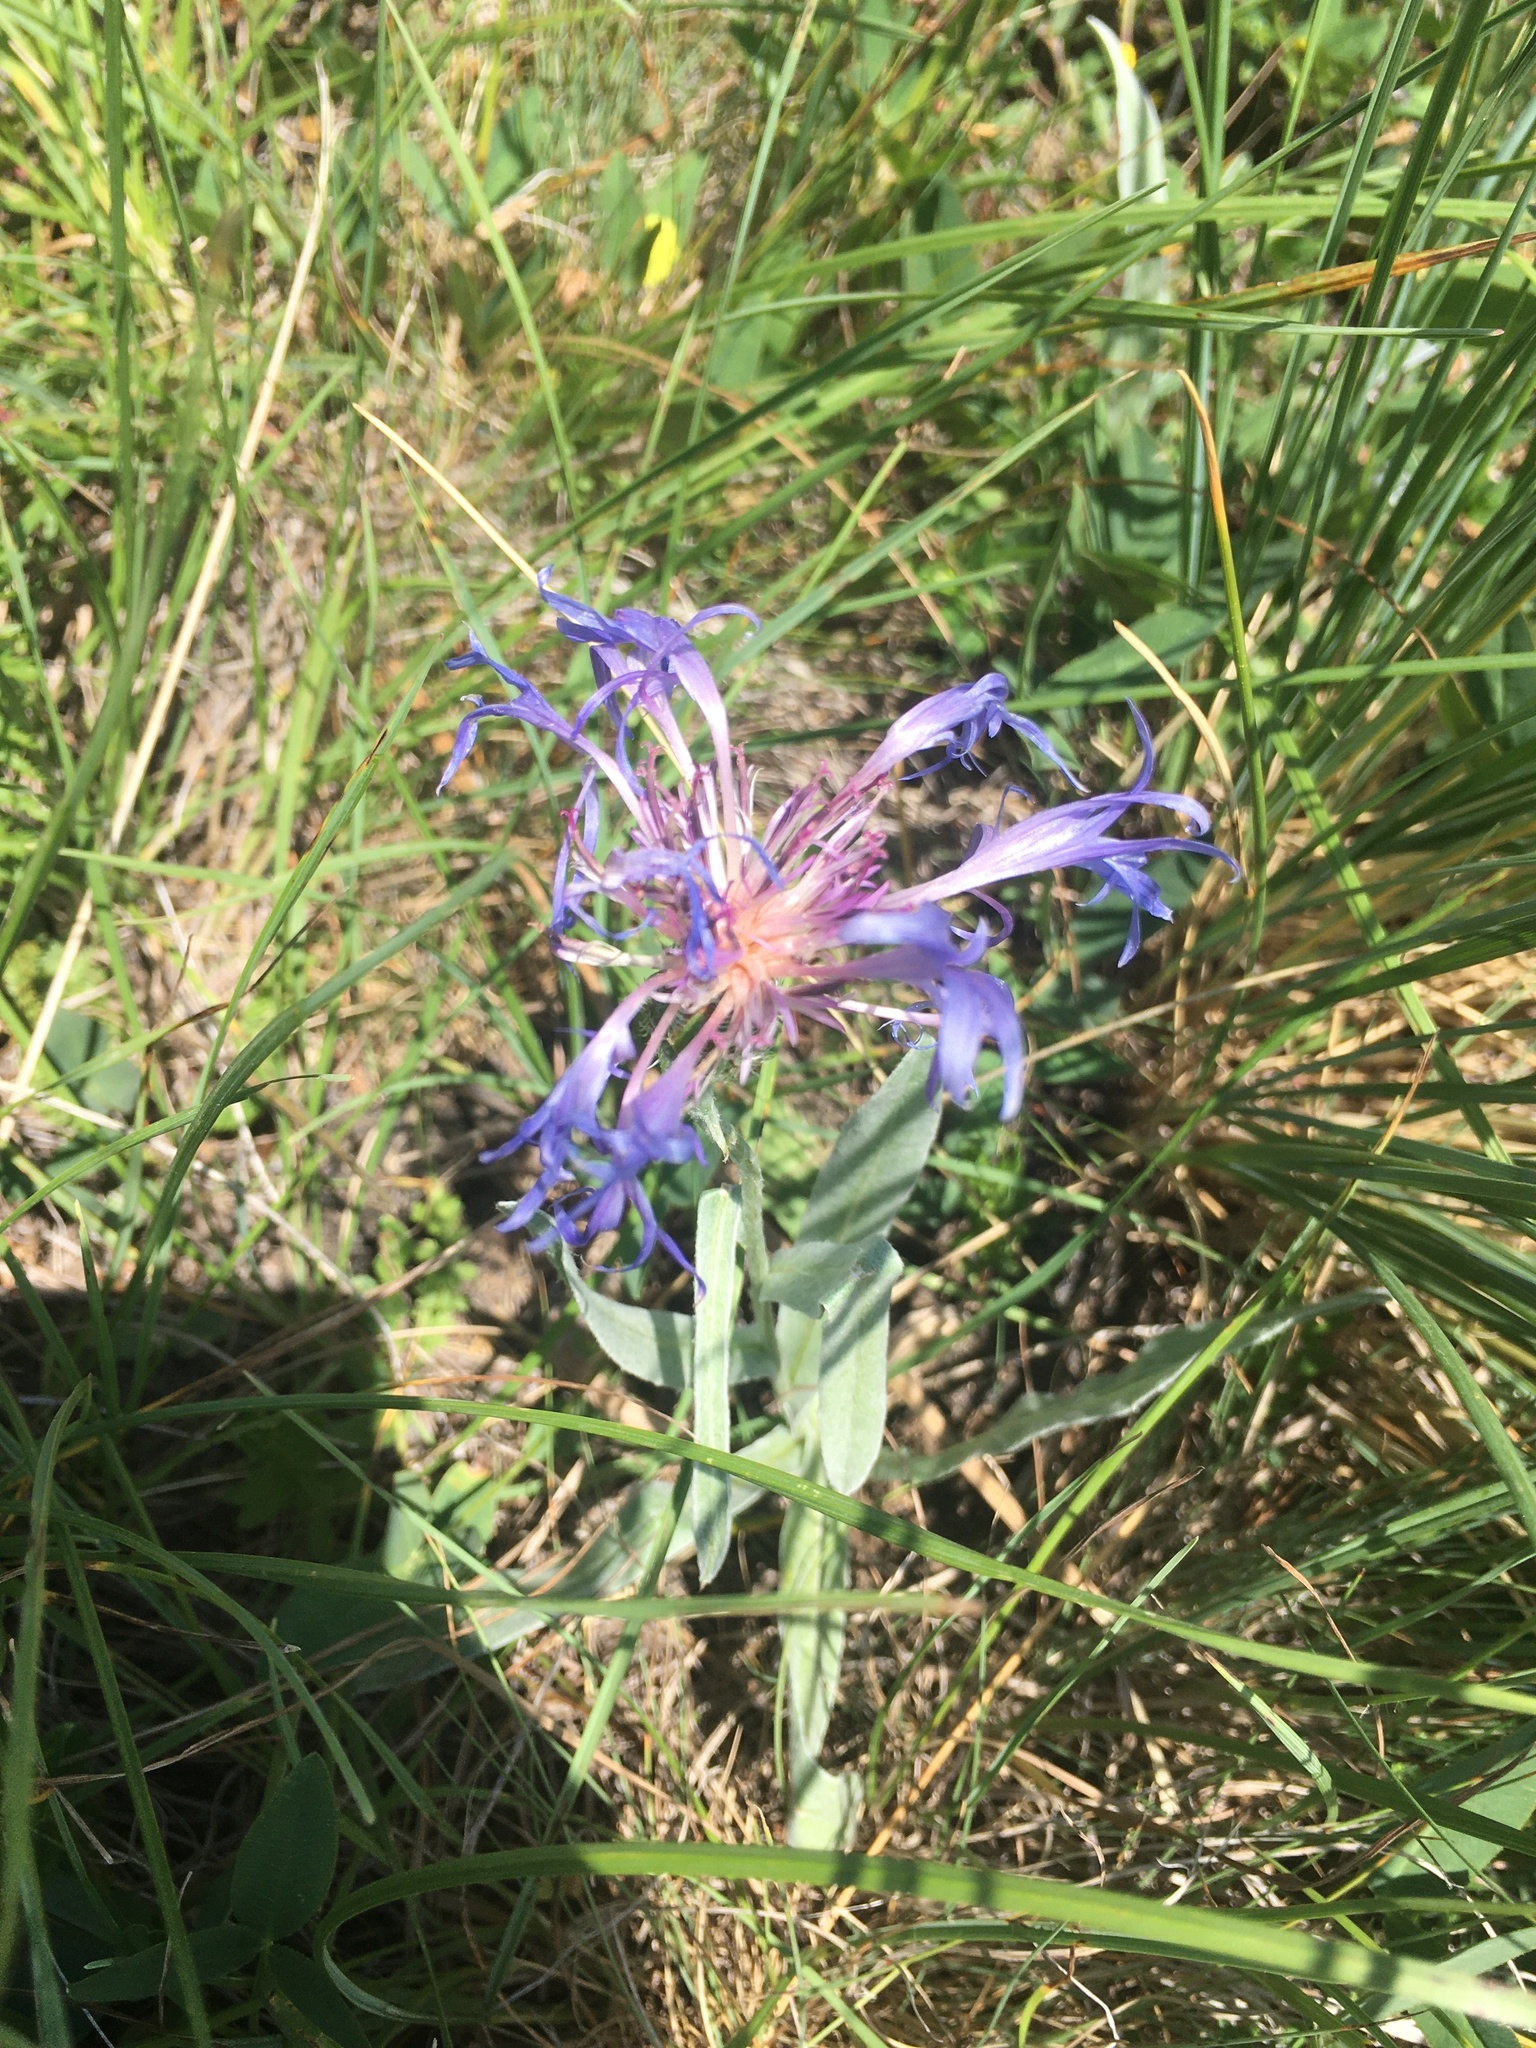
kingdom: Plantae
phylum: Tracheophyta
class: Magnoliopsida
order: Asterales
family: Asteraceae
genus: Centaurea
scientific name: Centaurea fuscomarginata
